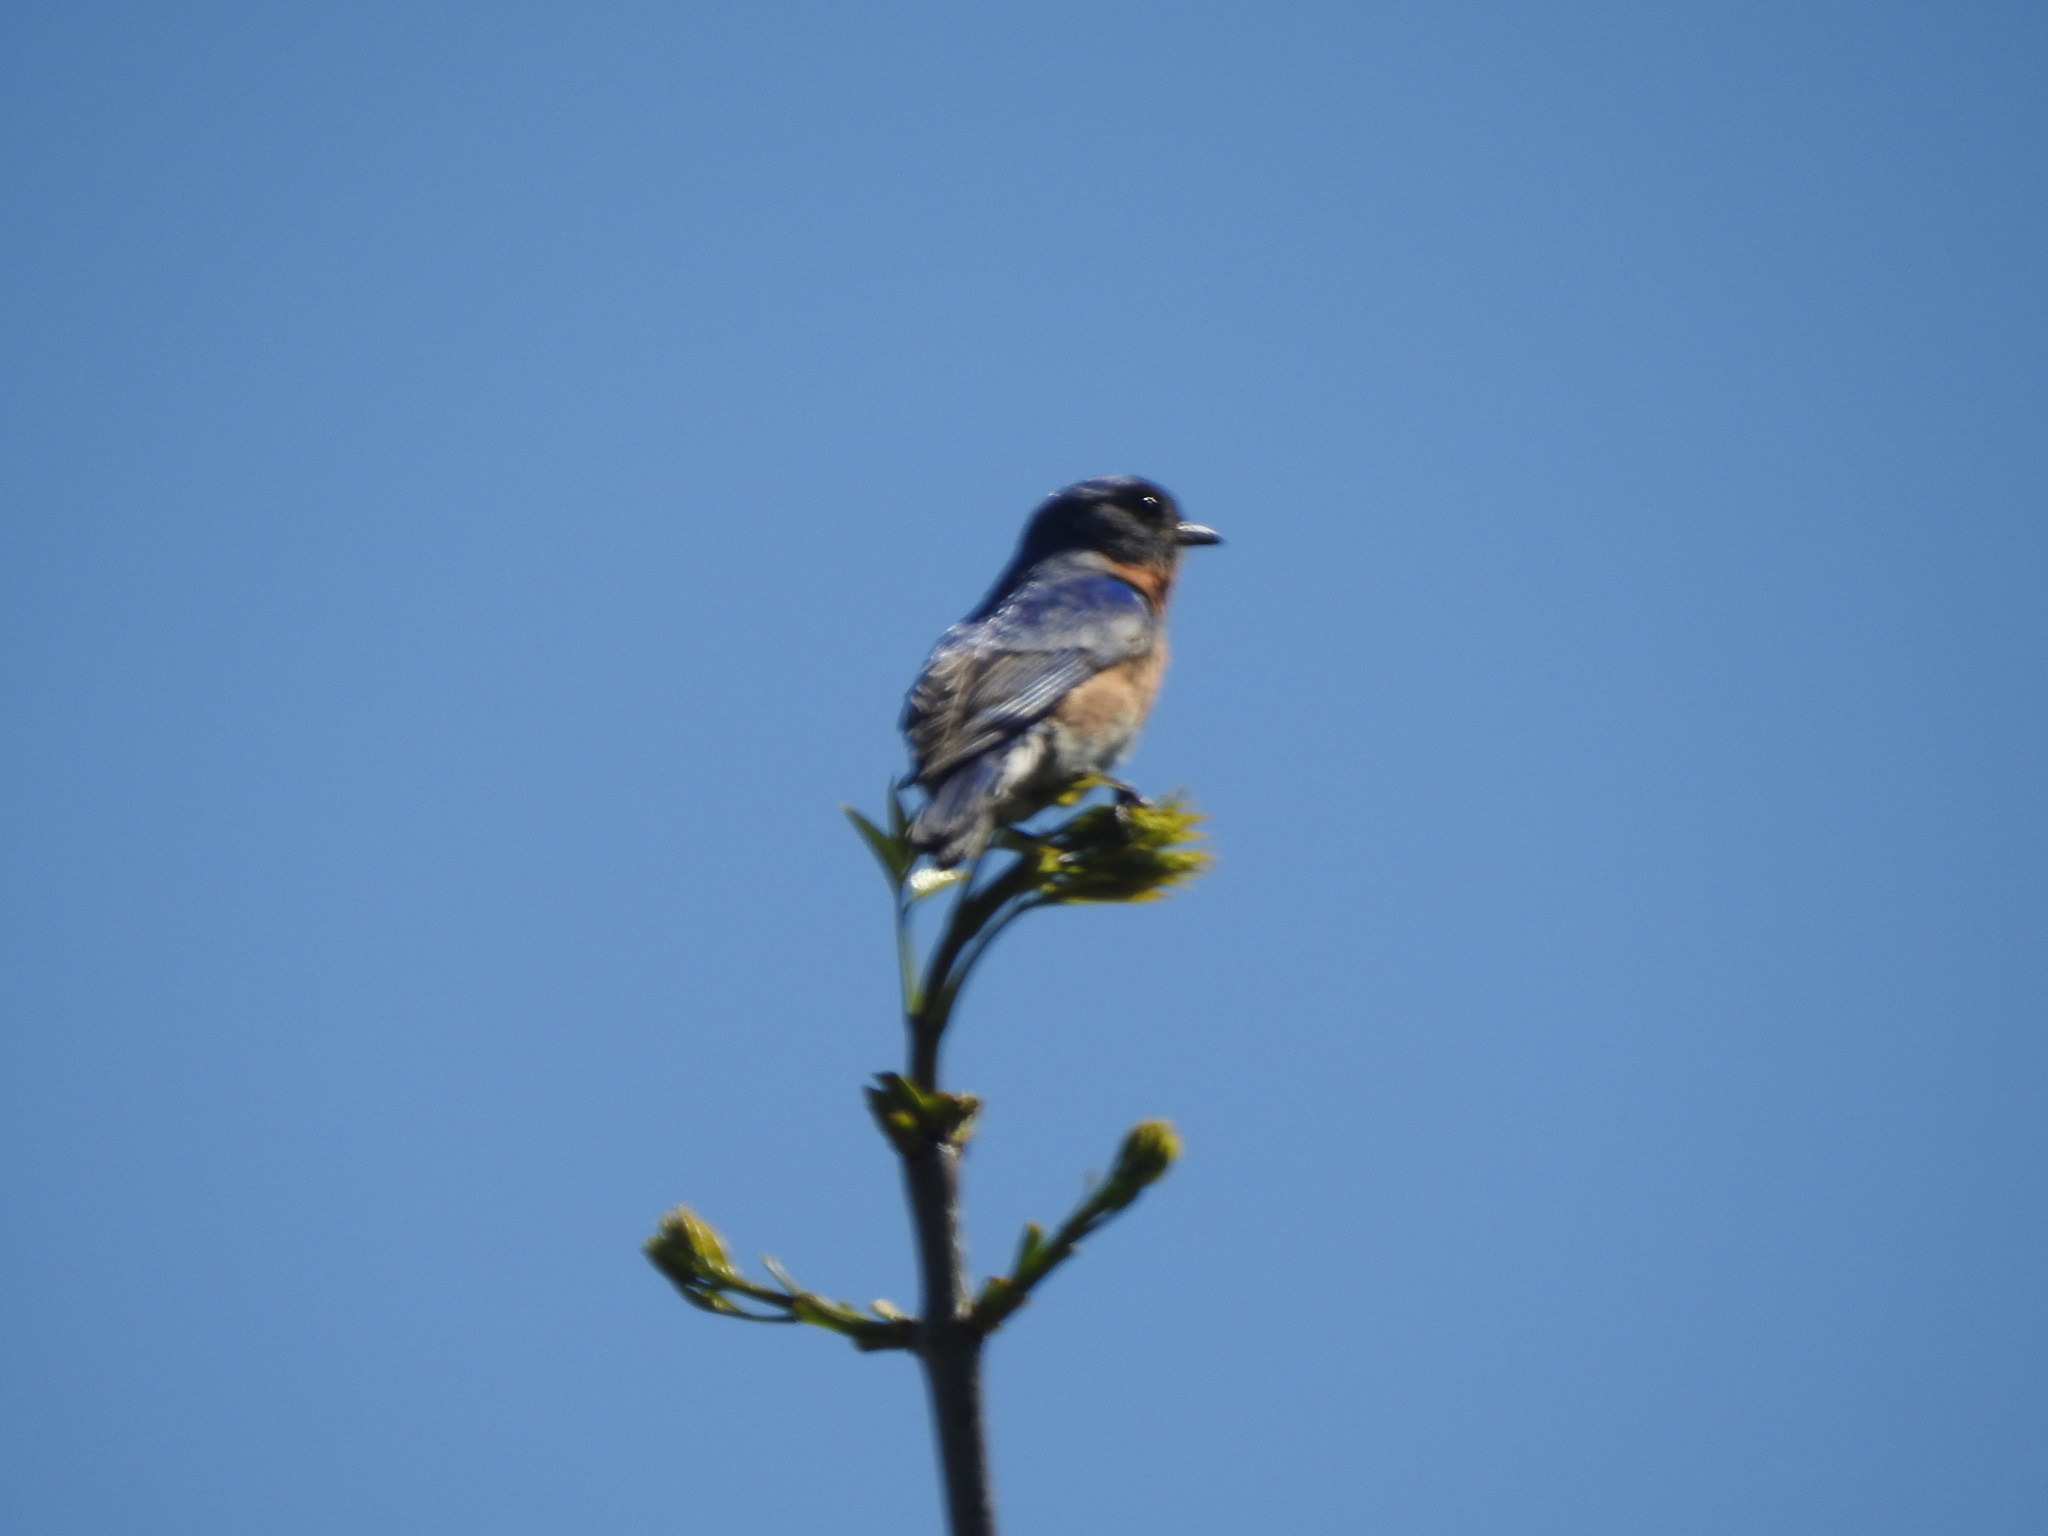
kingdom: Animalia
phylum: Chordata
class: Aves
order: Passeriformes
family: Turdidae
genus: Sialia
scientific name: Sialia sialis
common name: Eastern bluebird
